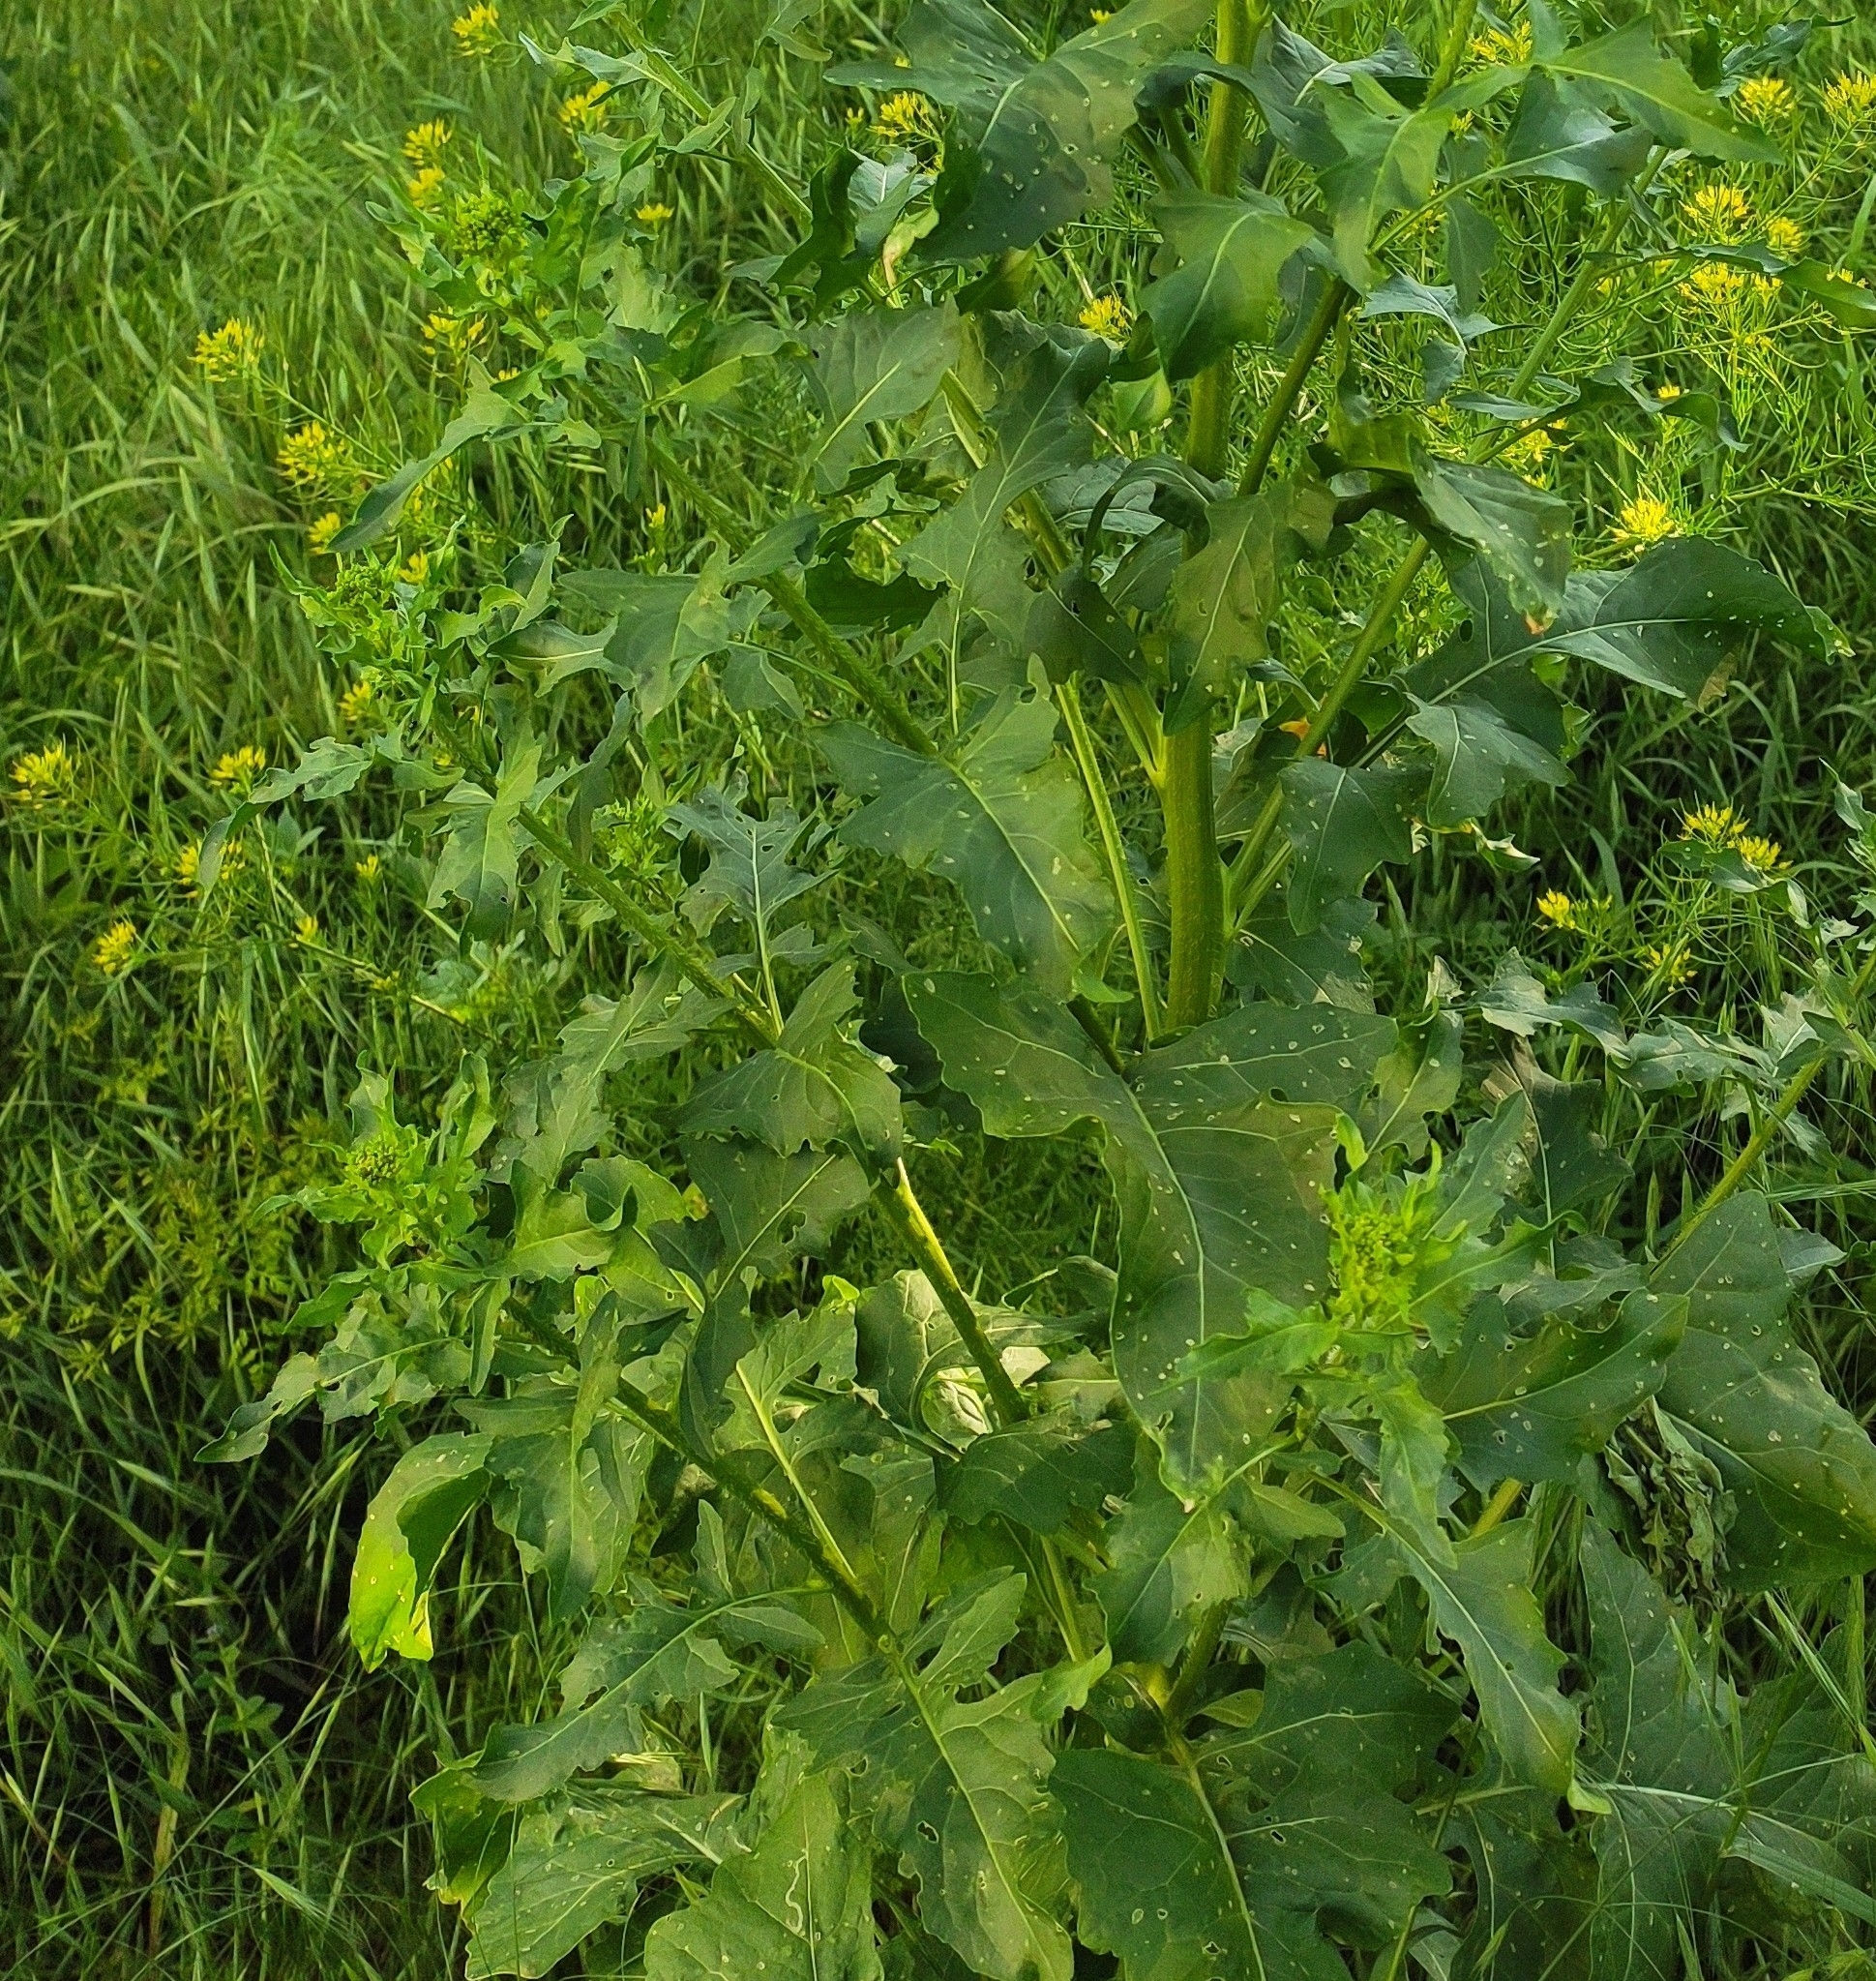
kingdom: Plantae
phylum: Tracheophyta
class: Magnoliopsida
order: Brassicales
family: Brassicaceae
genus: Sisymbrium
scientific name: Sisymbrium loeselii
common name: False london-rocket
